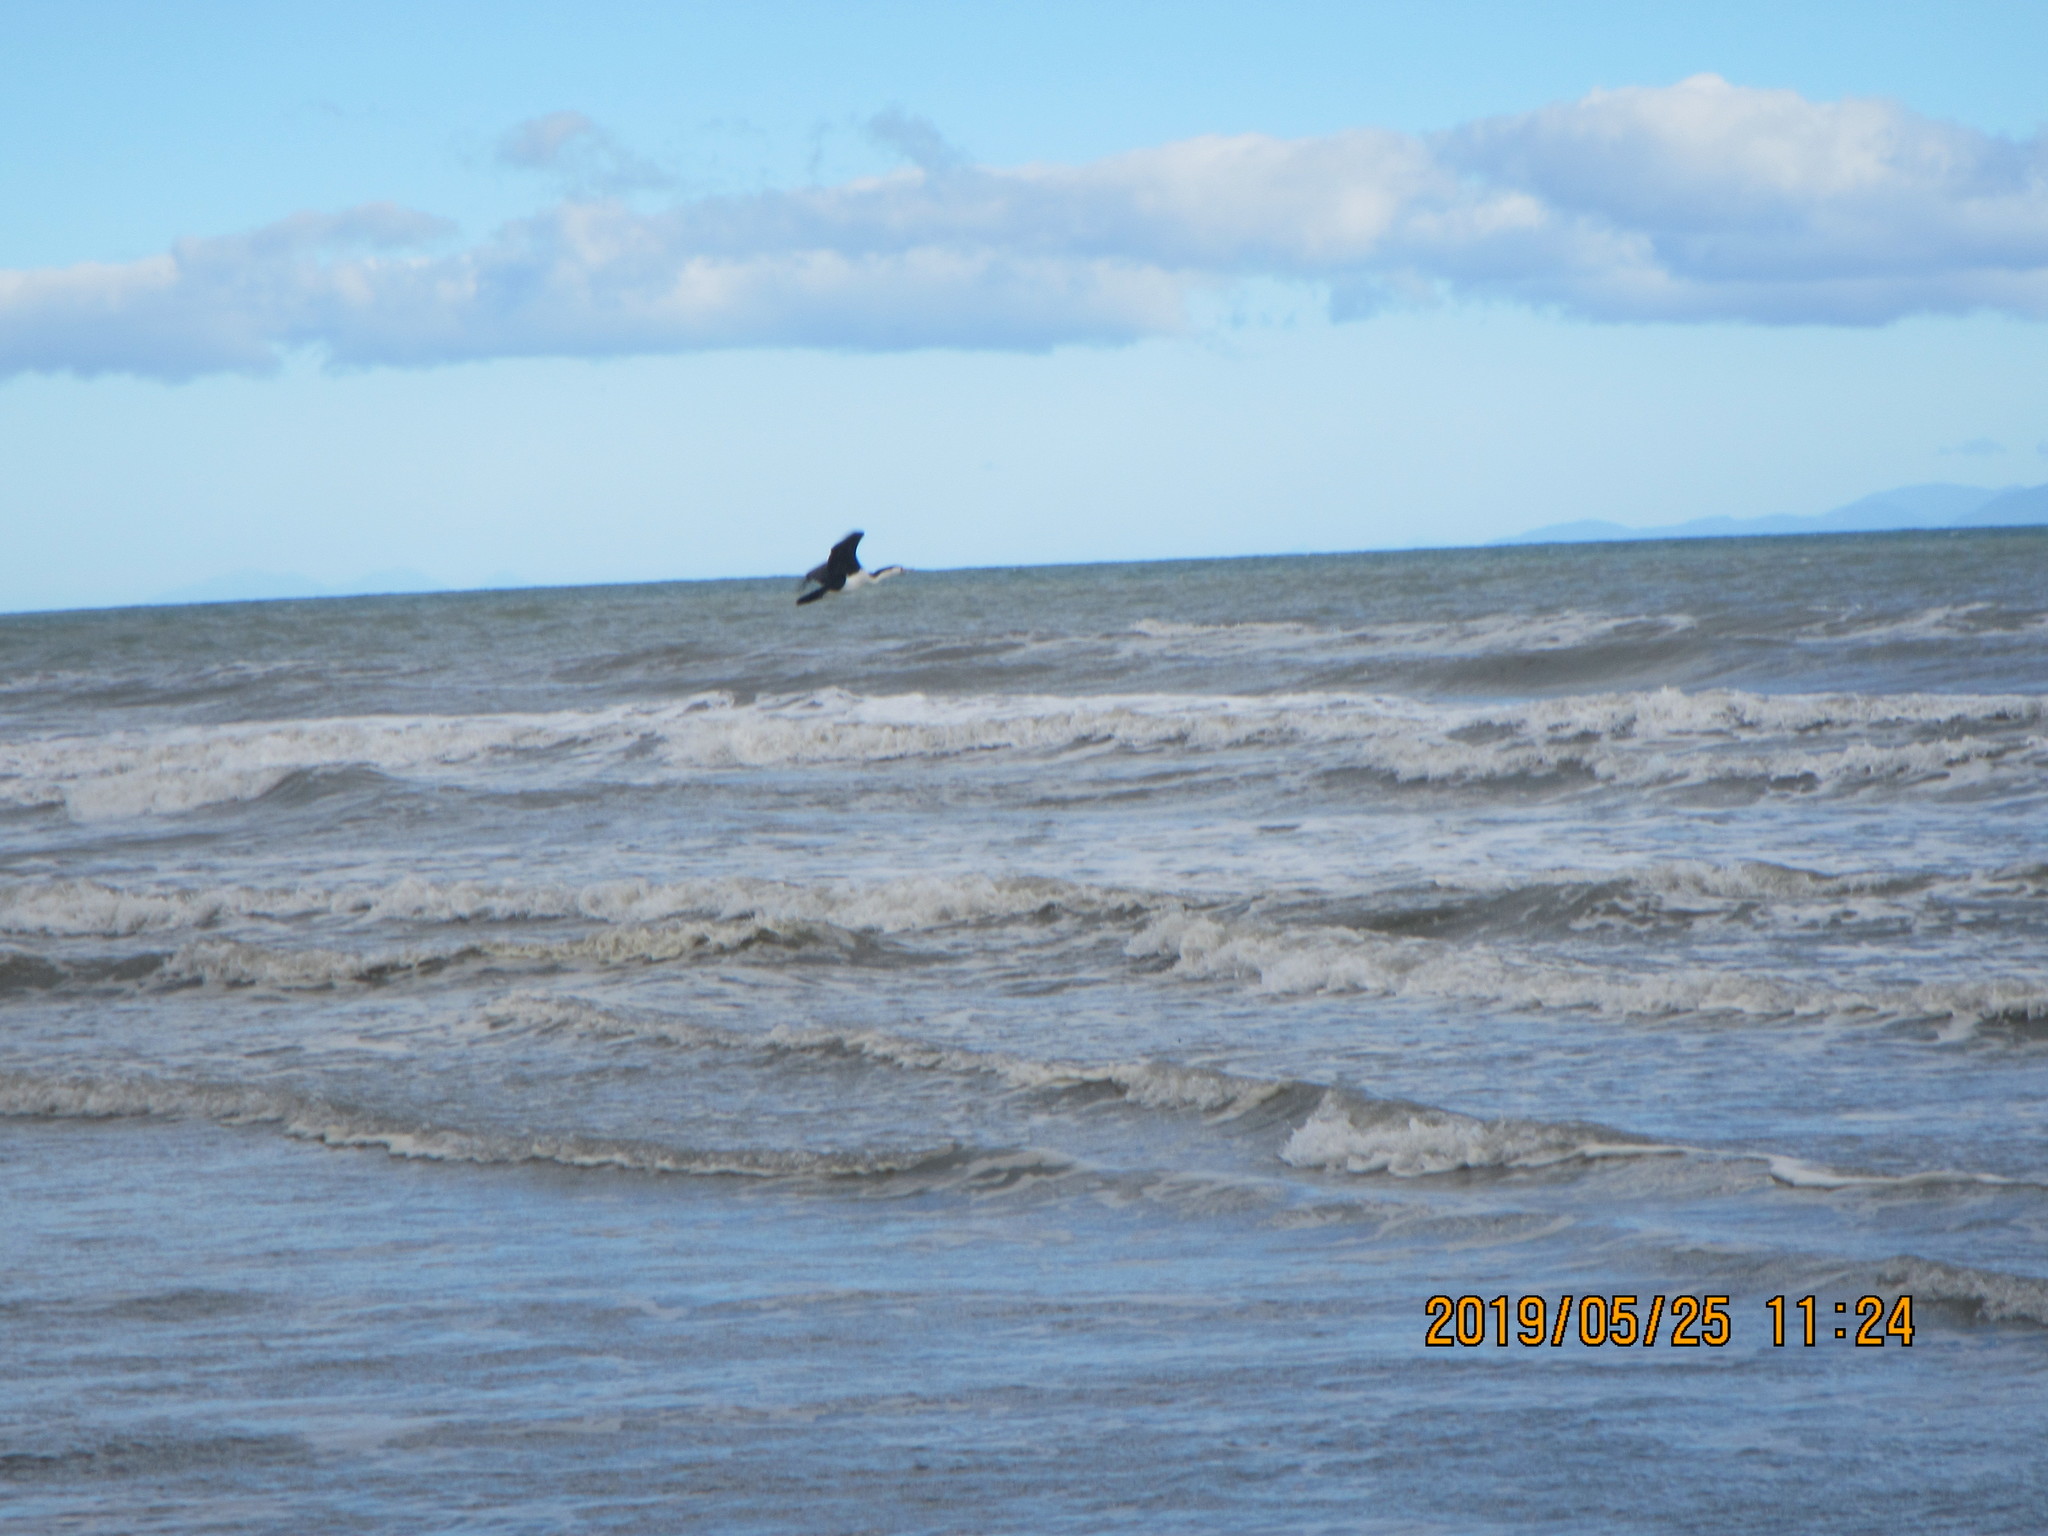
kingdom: Animalia
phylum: Chordata
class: Aves
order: Suliformes
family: Phalacrocoracidae
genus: Phalacrocorax
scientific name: Phalacrocorax varius
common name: Pied cormorant
